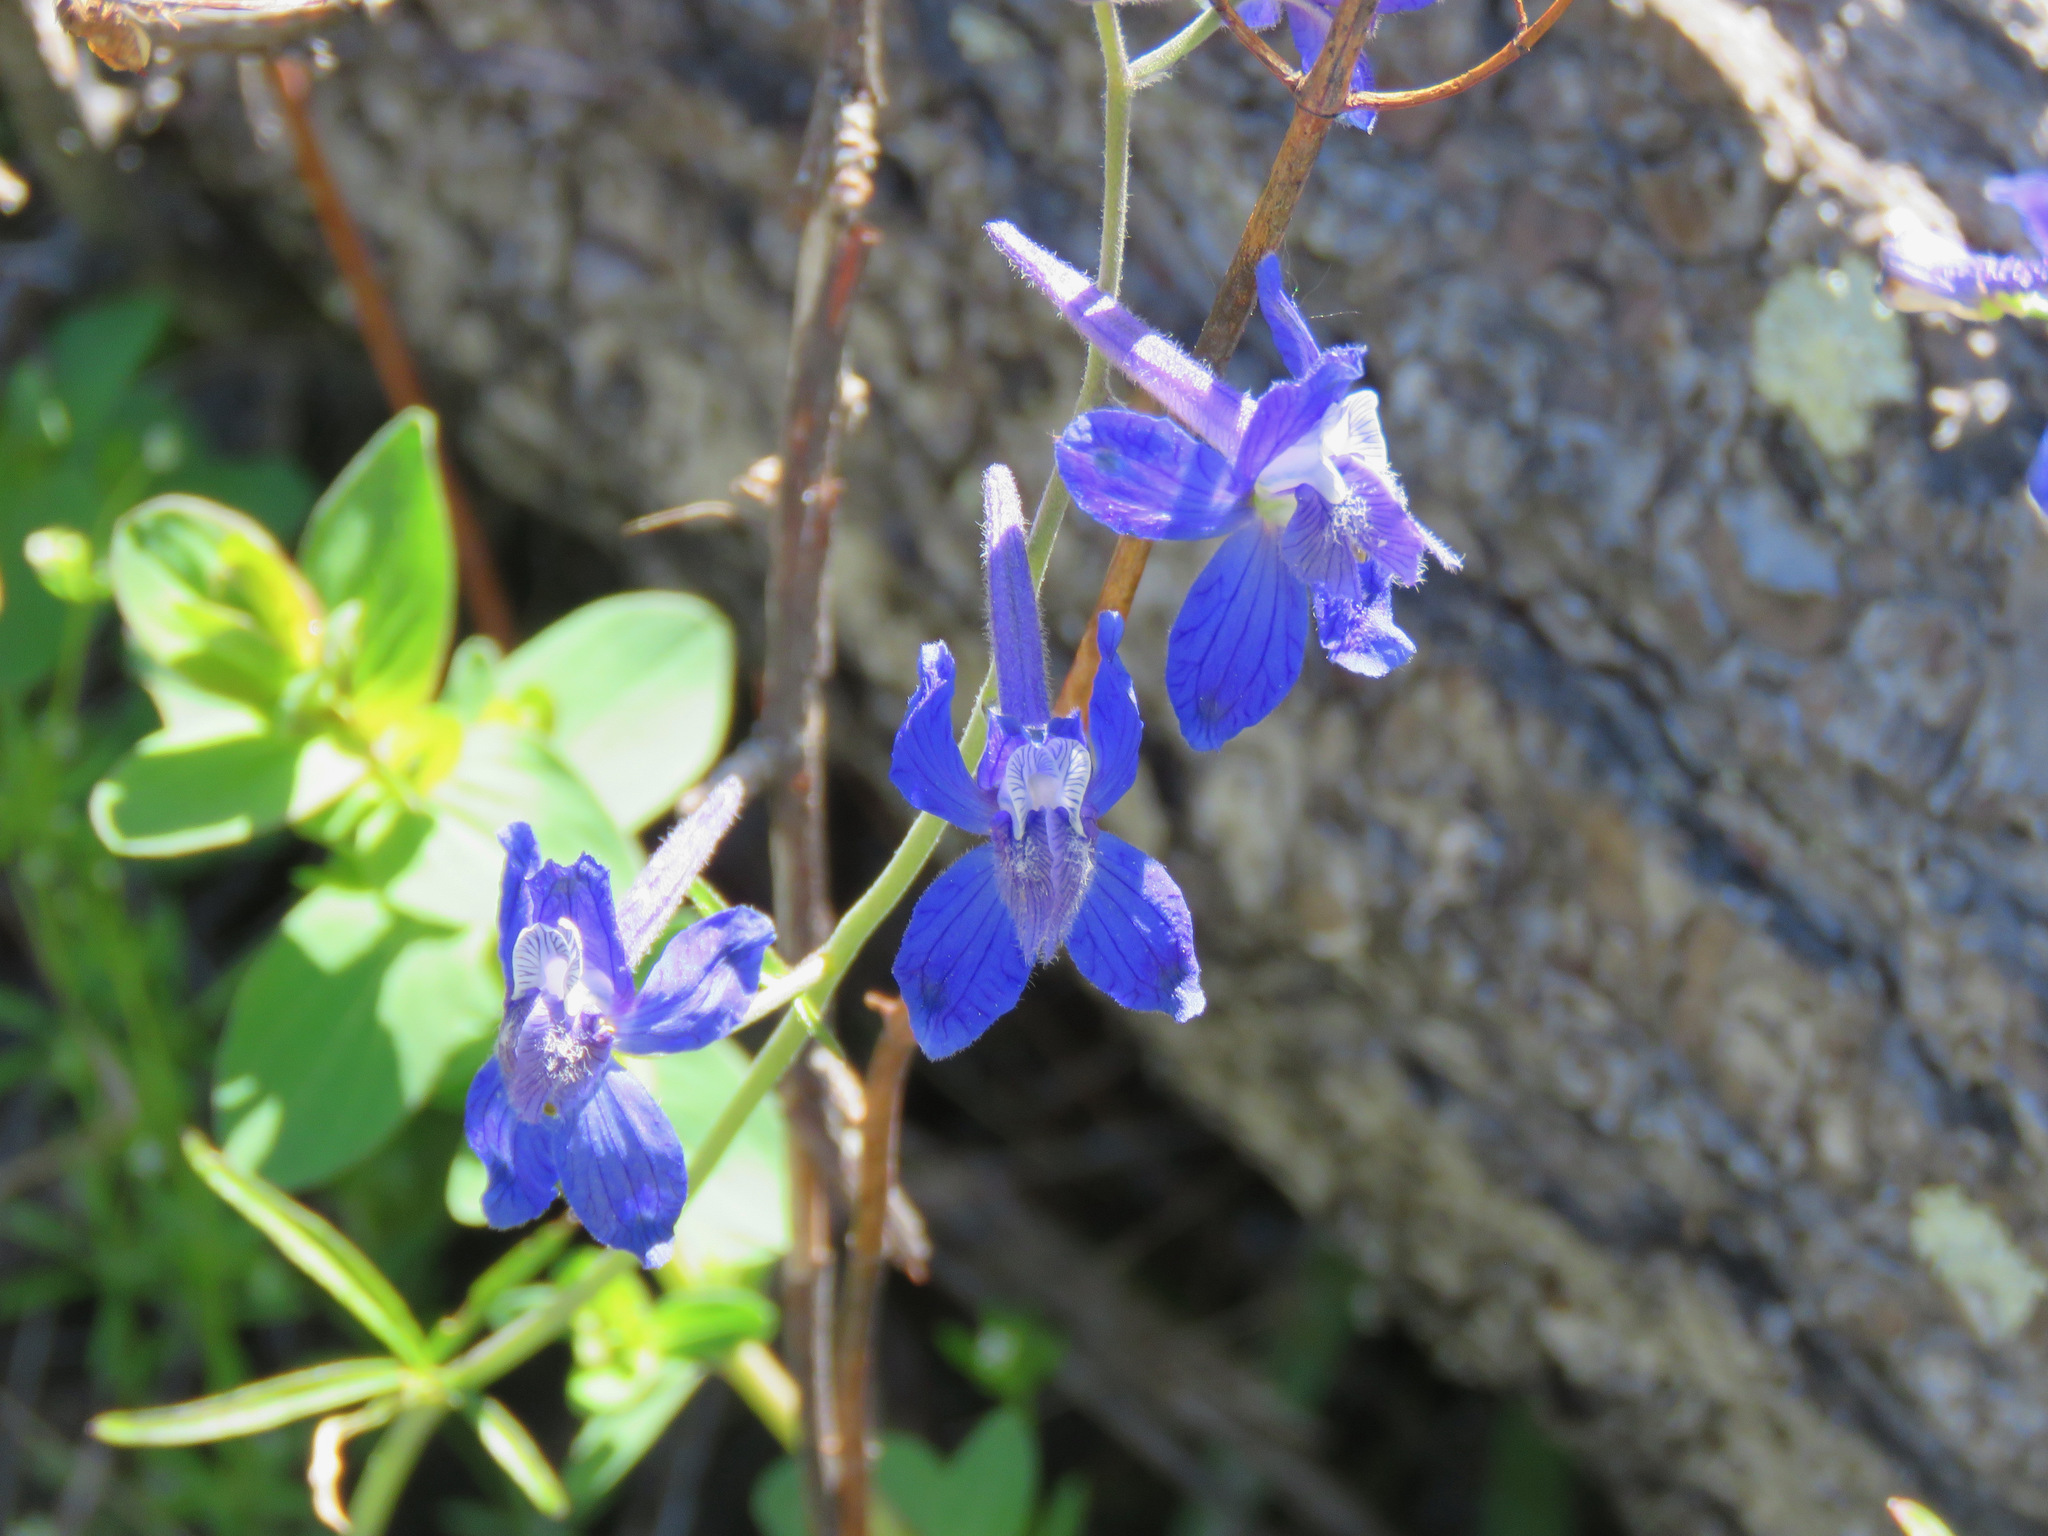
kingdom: Plantae
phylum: Tracheophyta
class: Magnoliopsida
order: Ranunculales
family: Ranunculaceae
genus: Delphinium
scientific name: Delphinium nuttallianum
